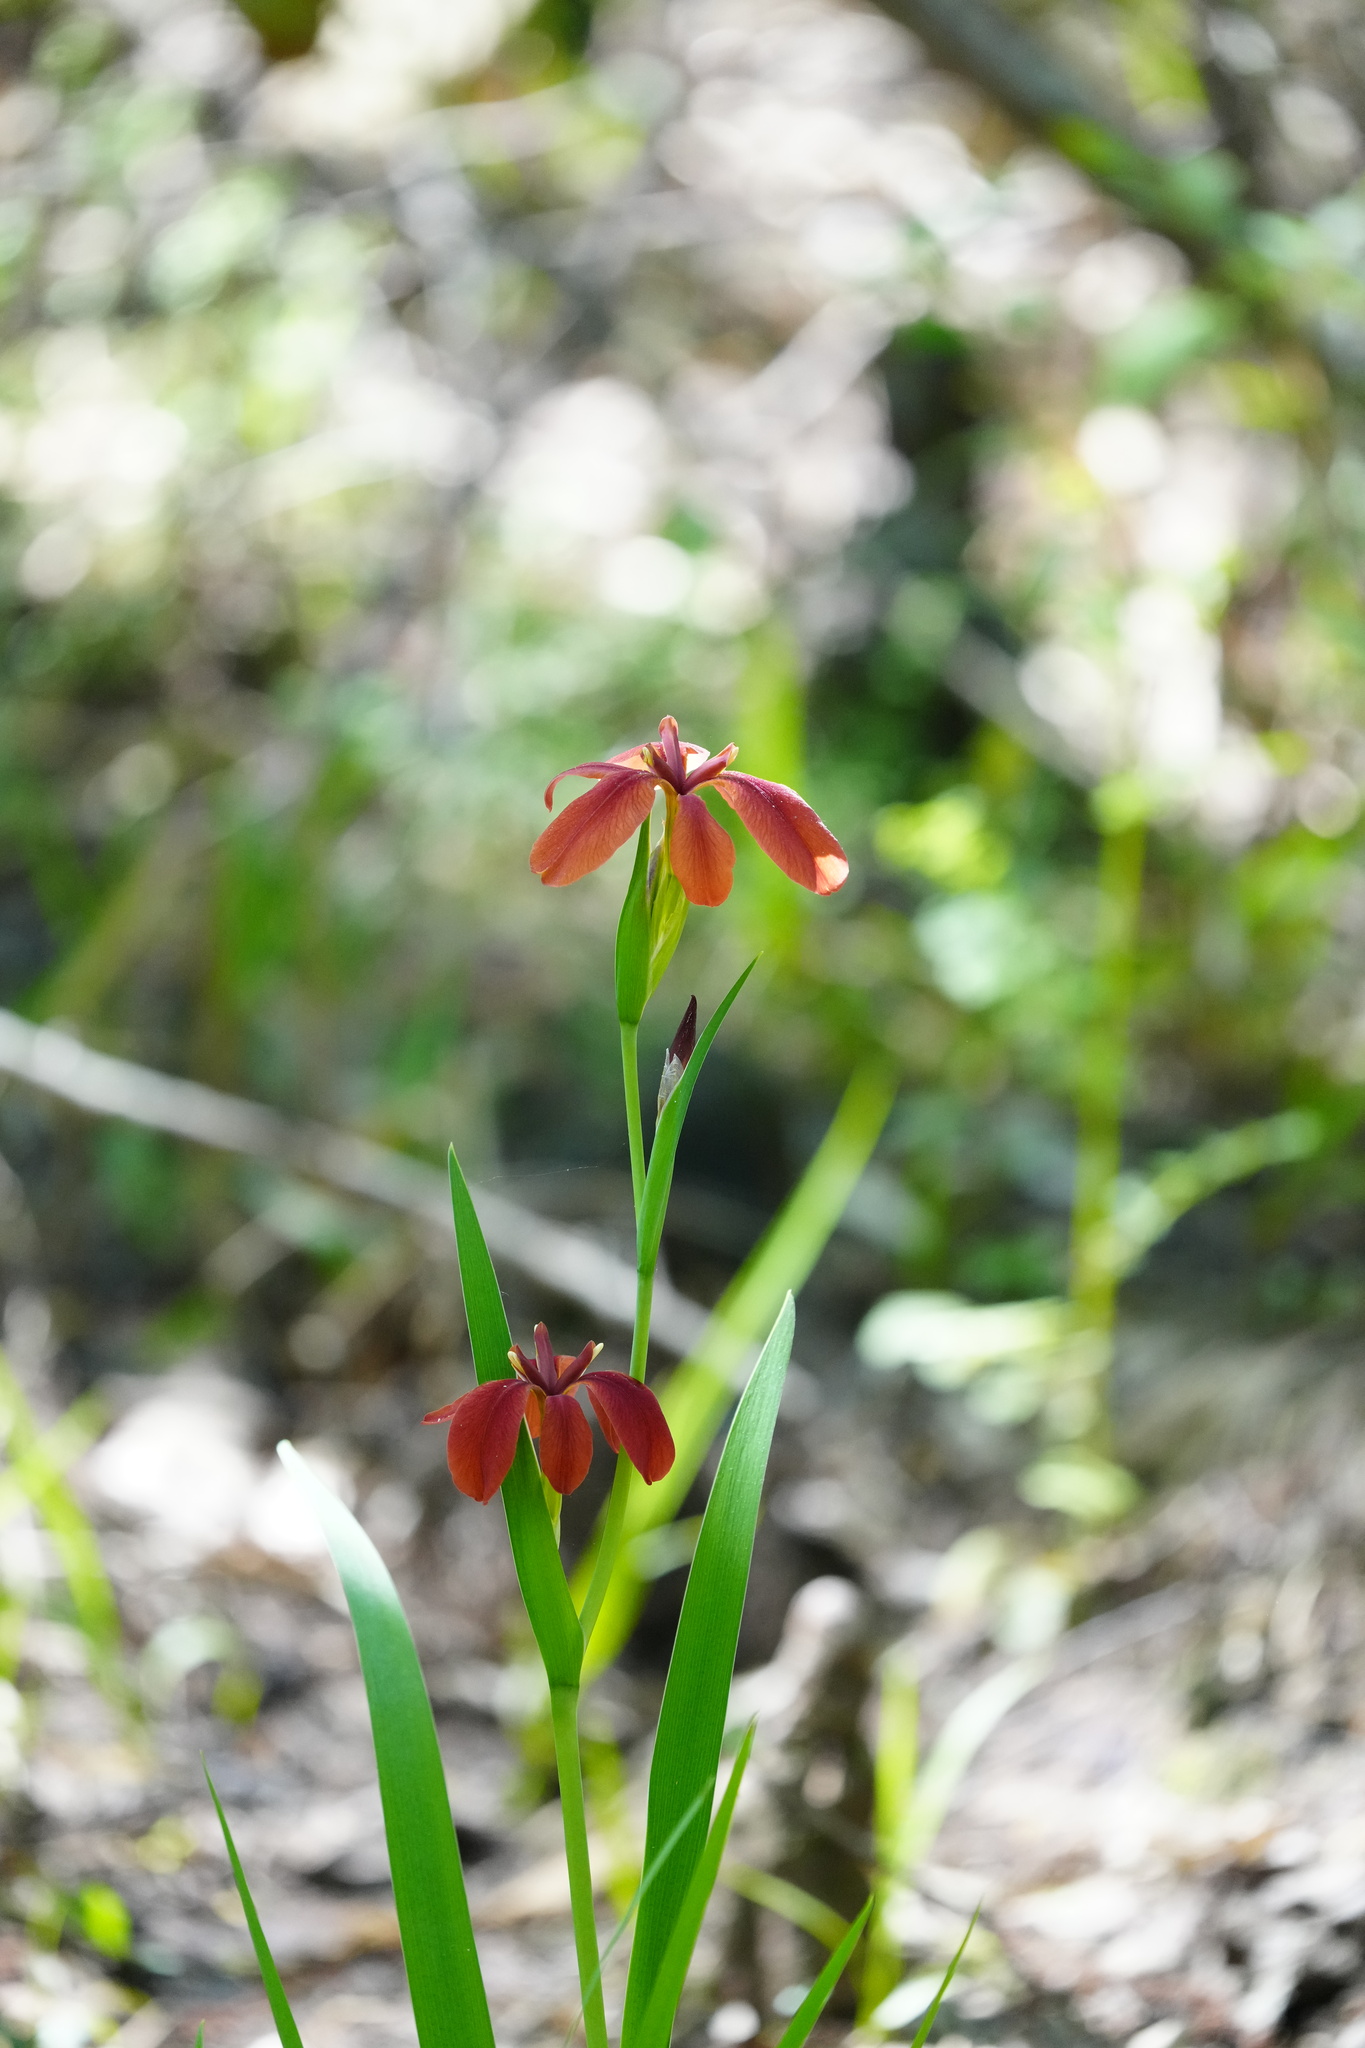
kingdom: Plantae
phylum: Tracheophyta
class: Liliopsida
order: Asparagales
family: Iridaceae
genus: Iris
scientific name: Iris fulva
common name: Copper iris
